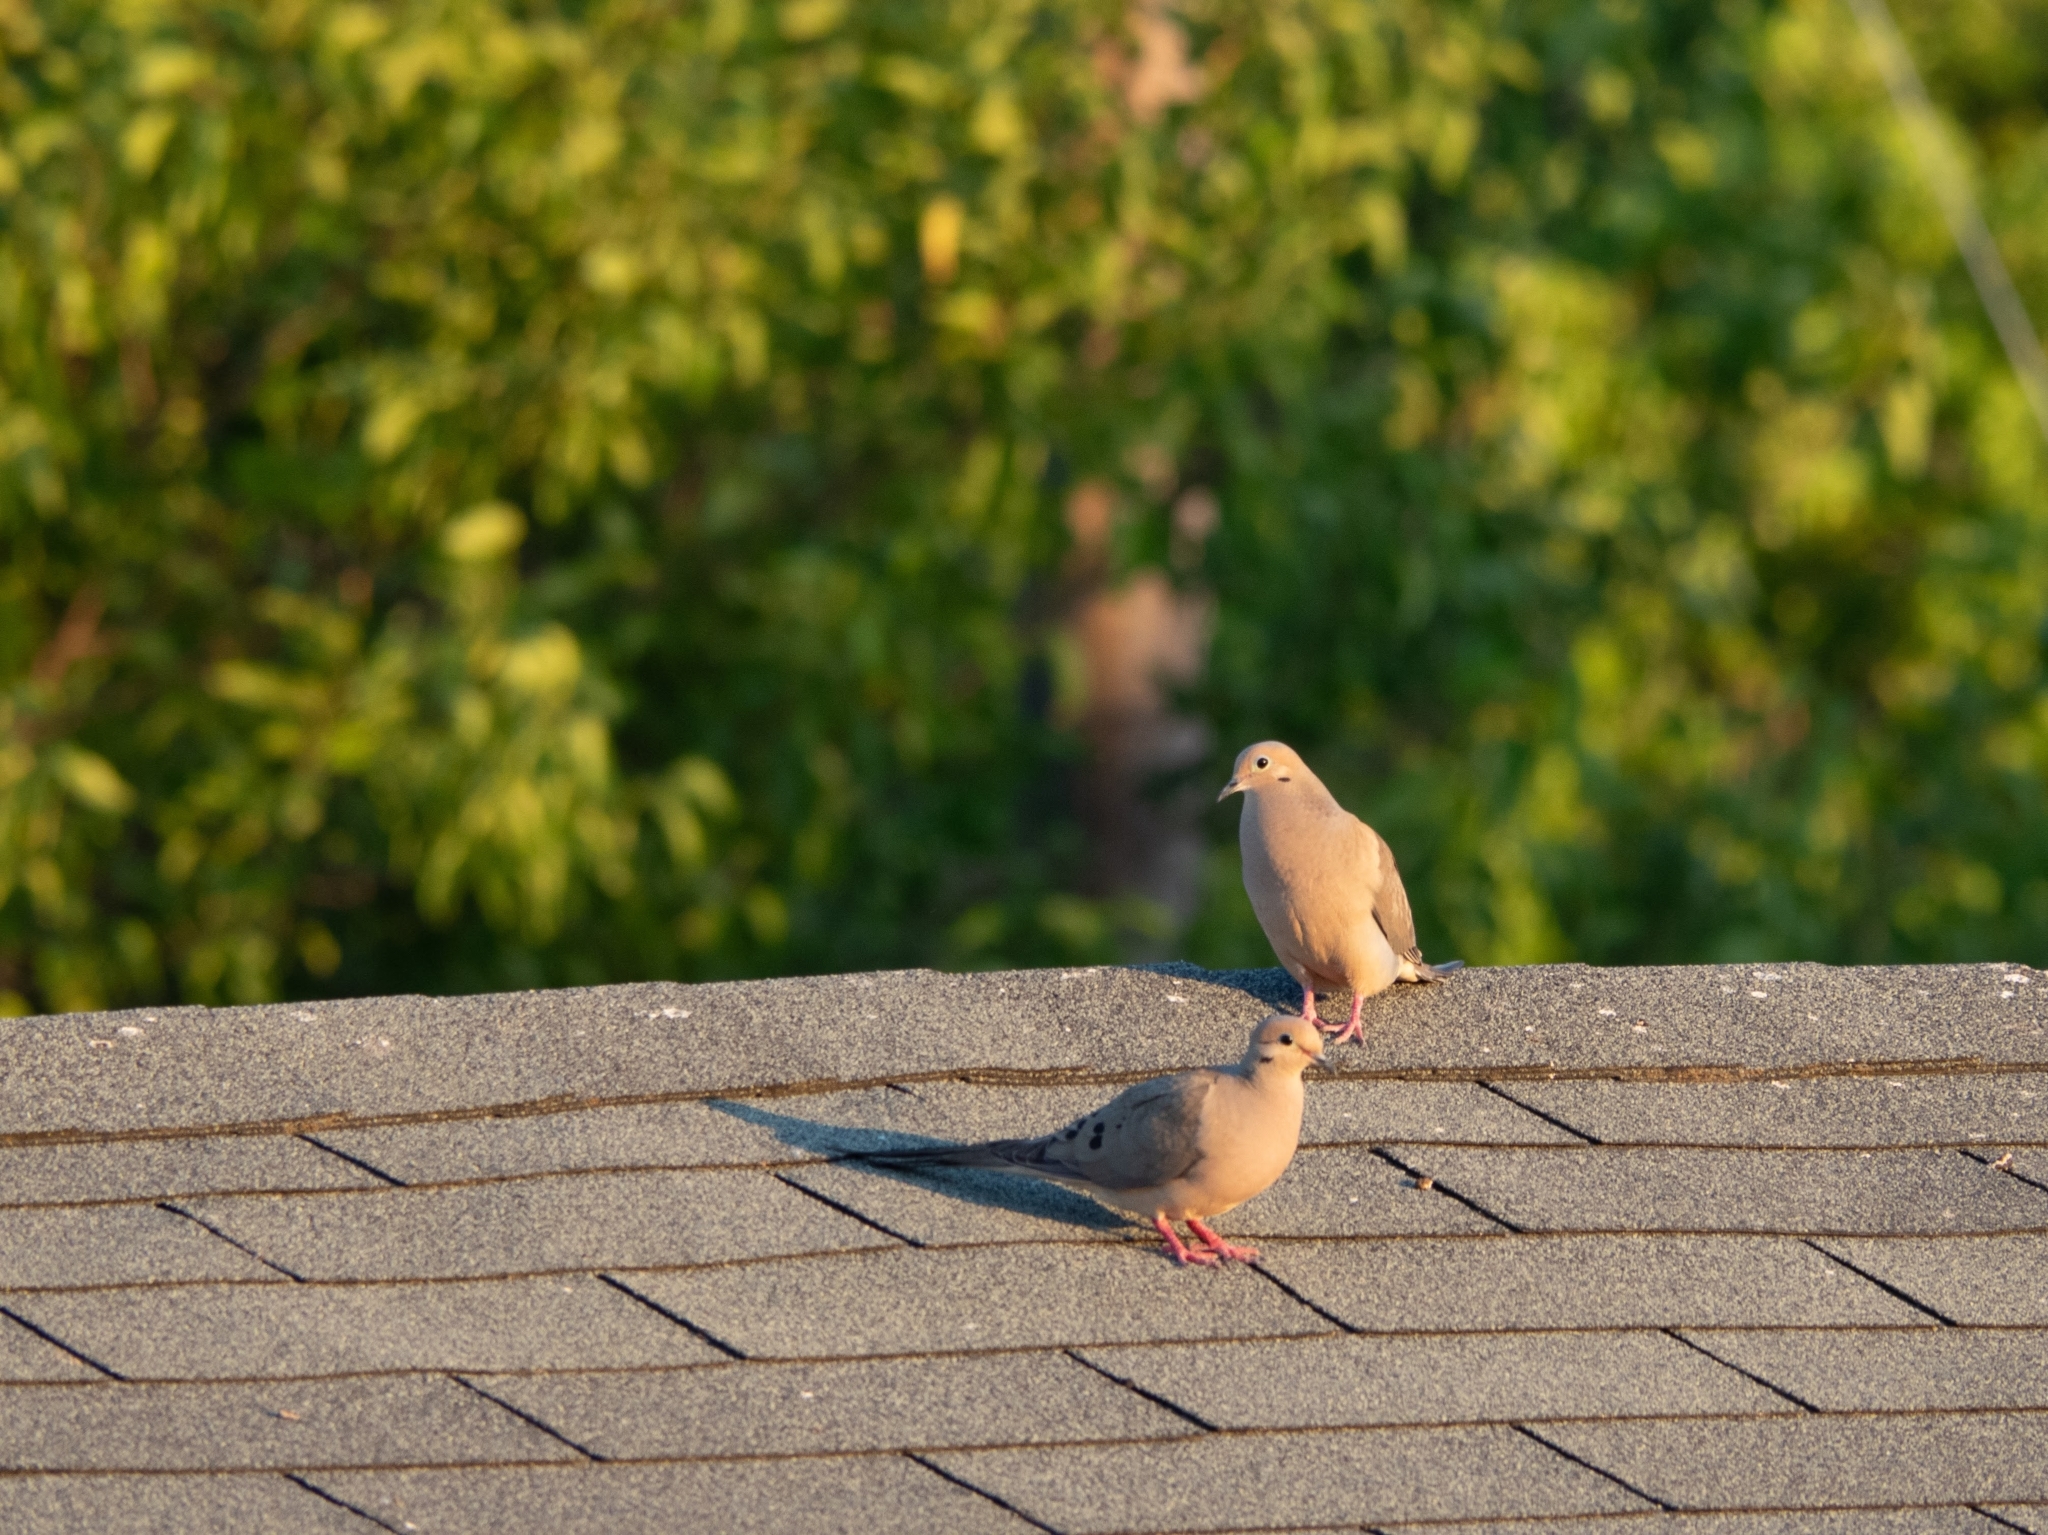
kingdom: Animalia
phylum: Chordata
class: Aves
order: Columbiformes
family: Columbidae
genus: Zenaida
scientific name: Zenaida macroura
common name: Mourning dove
